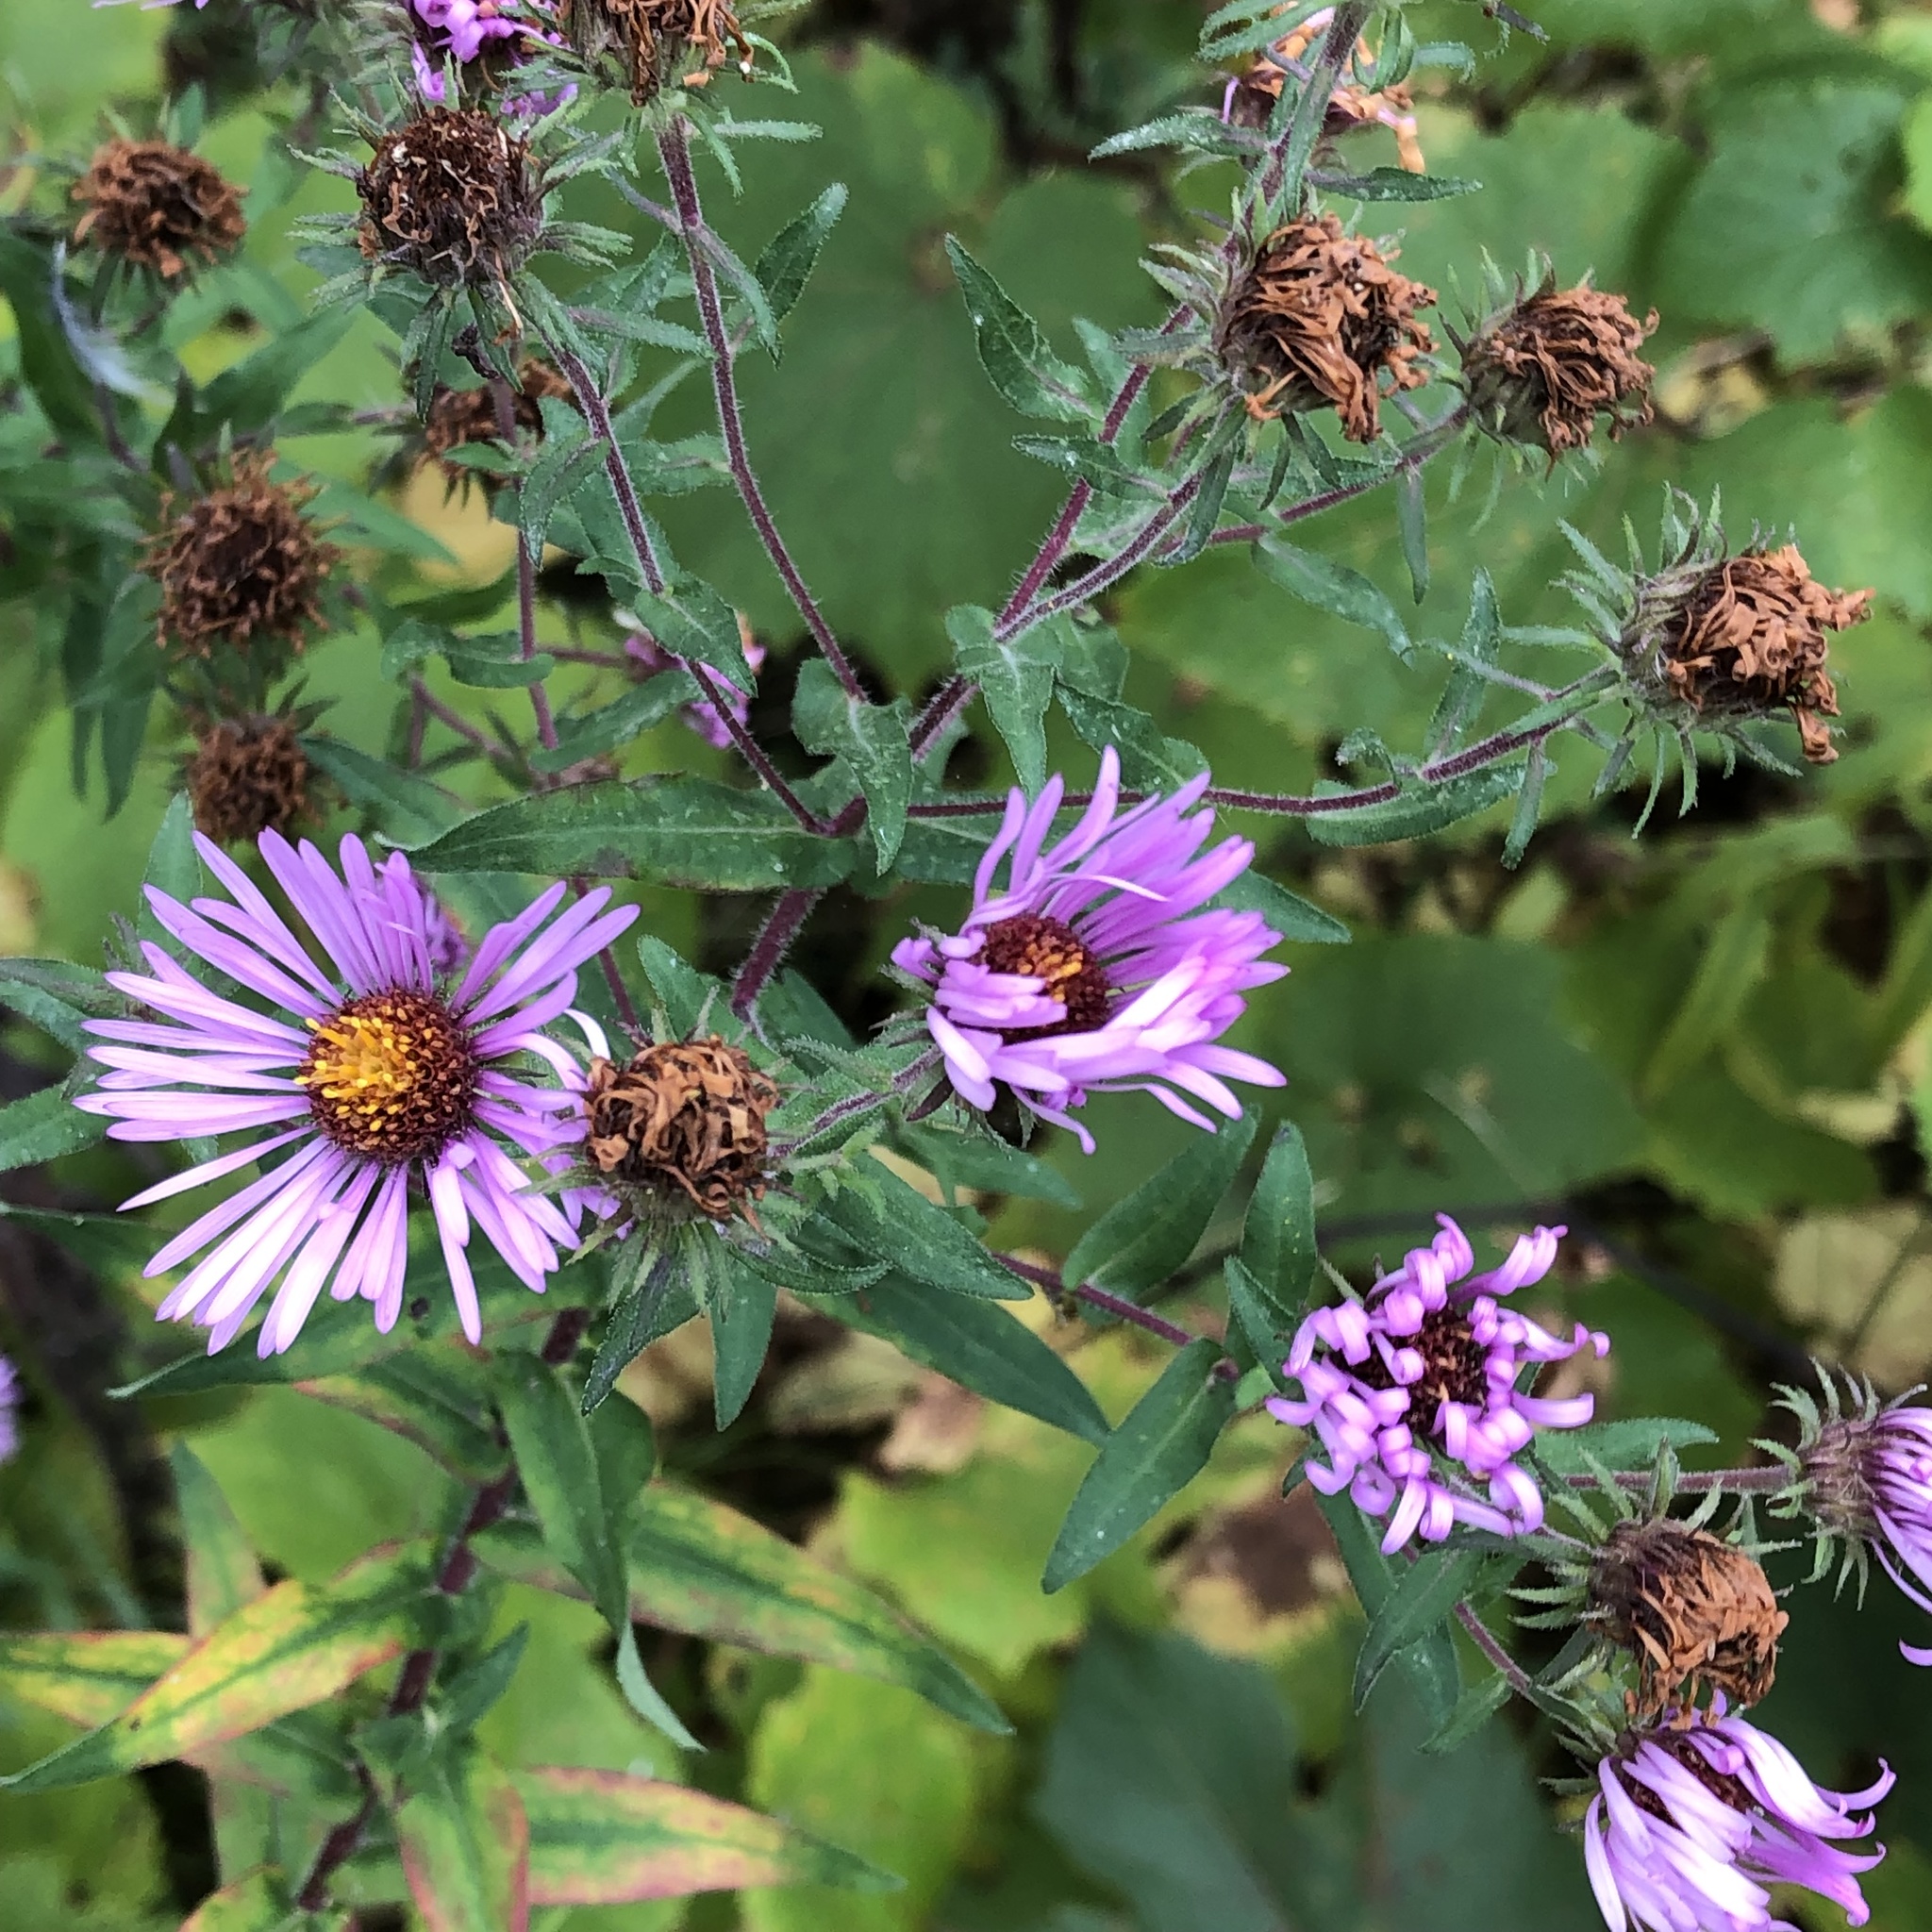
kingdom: Plantae
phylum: Tracheophyta
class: Magnoliopsida
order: Asterales
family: Asteraceae
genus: Symphyotrichum
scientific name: Symphyotrichum novae-angliae
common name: Michaelmas daisy
